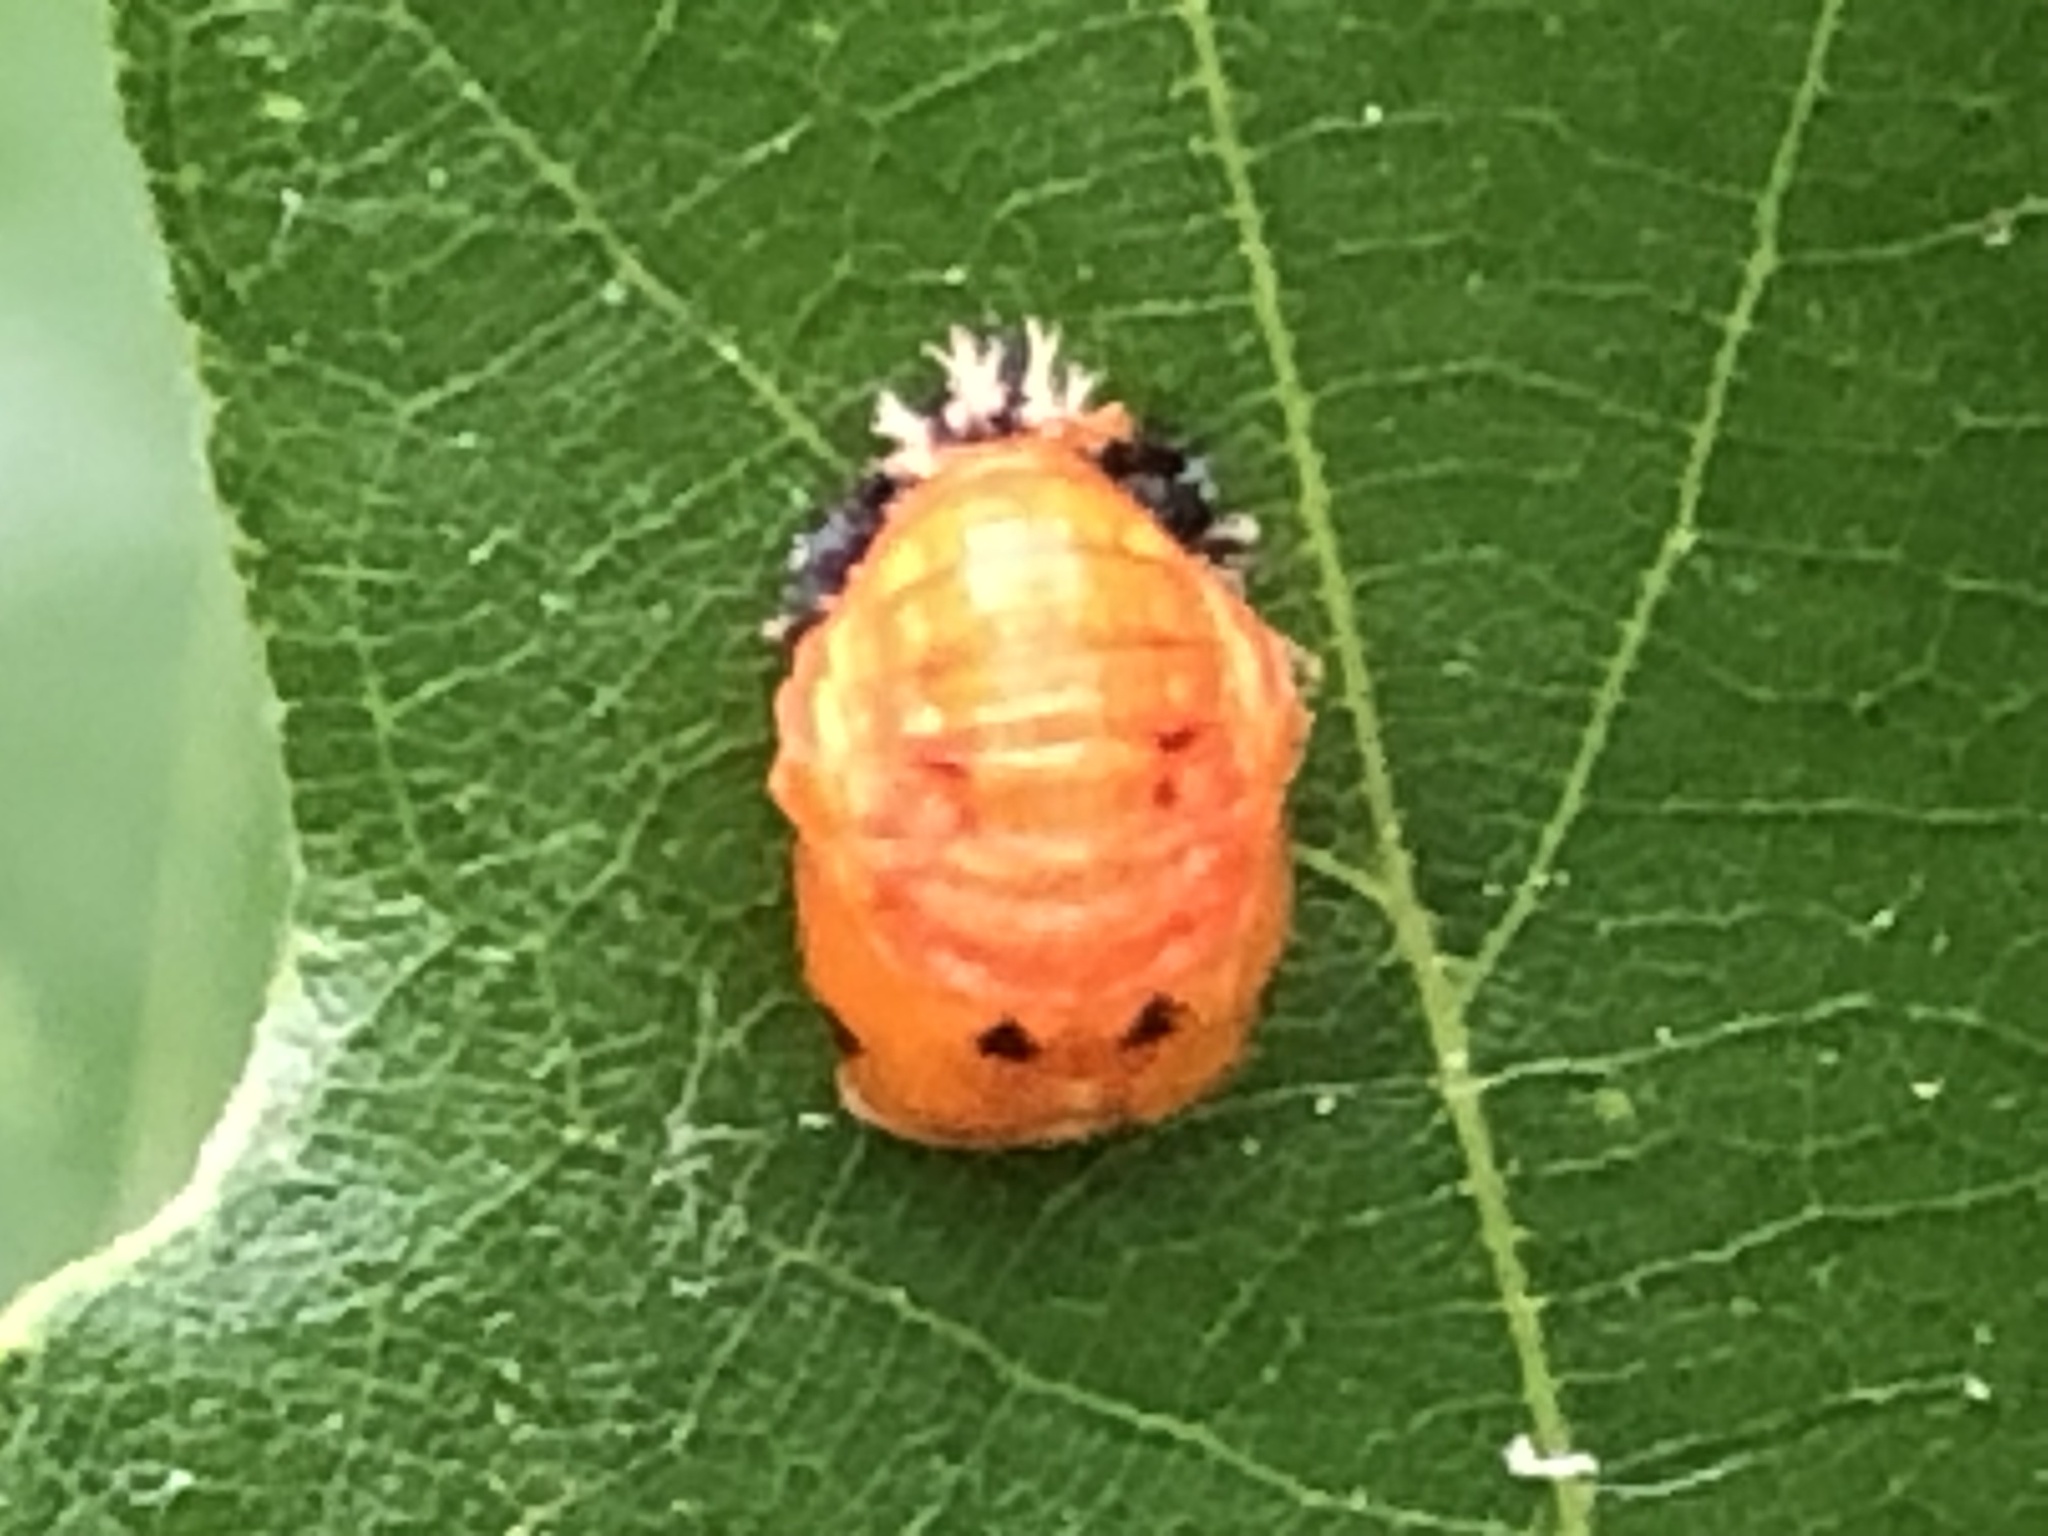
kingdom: Animalia
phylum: Arthropoda
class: Insecta
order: Coleoptera
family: Coccinellidae
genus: Harmonia
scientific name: Harmonia axyridis
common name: Harlequin ladybird
